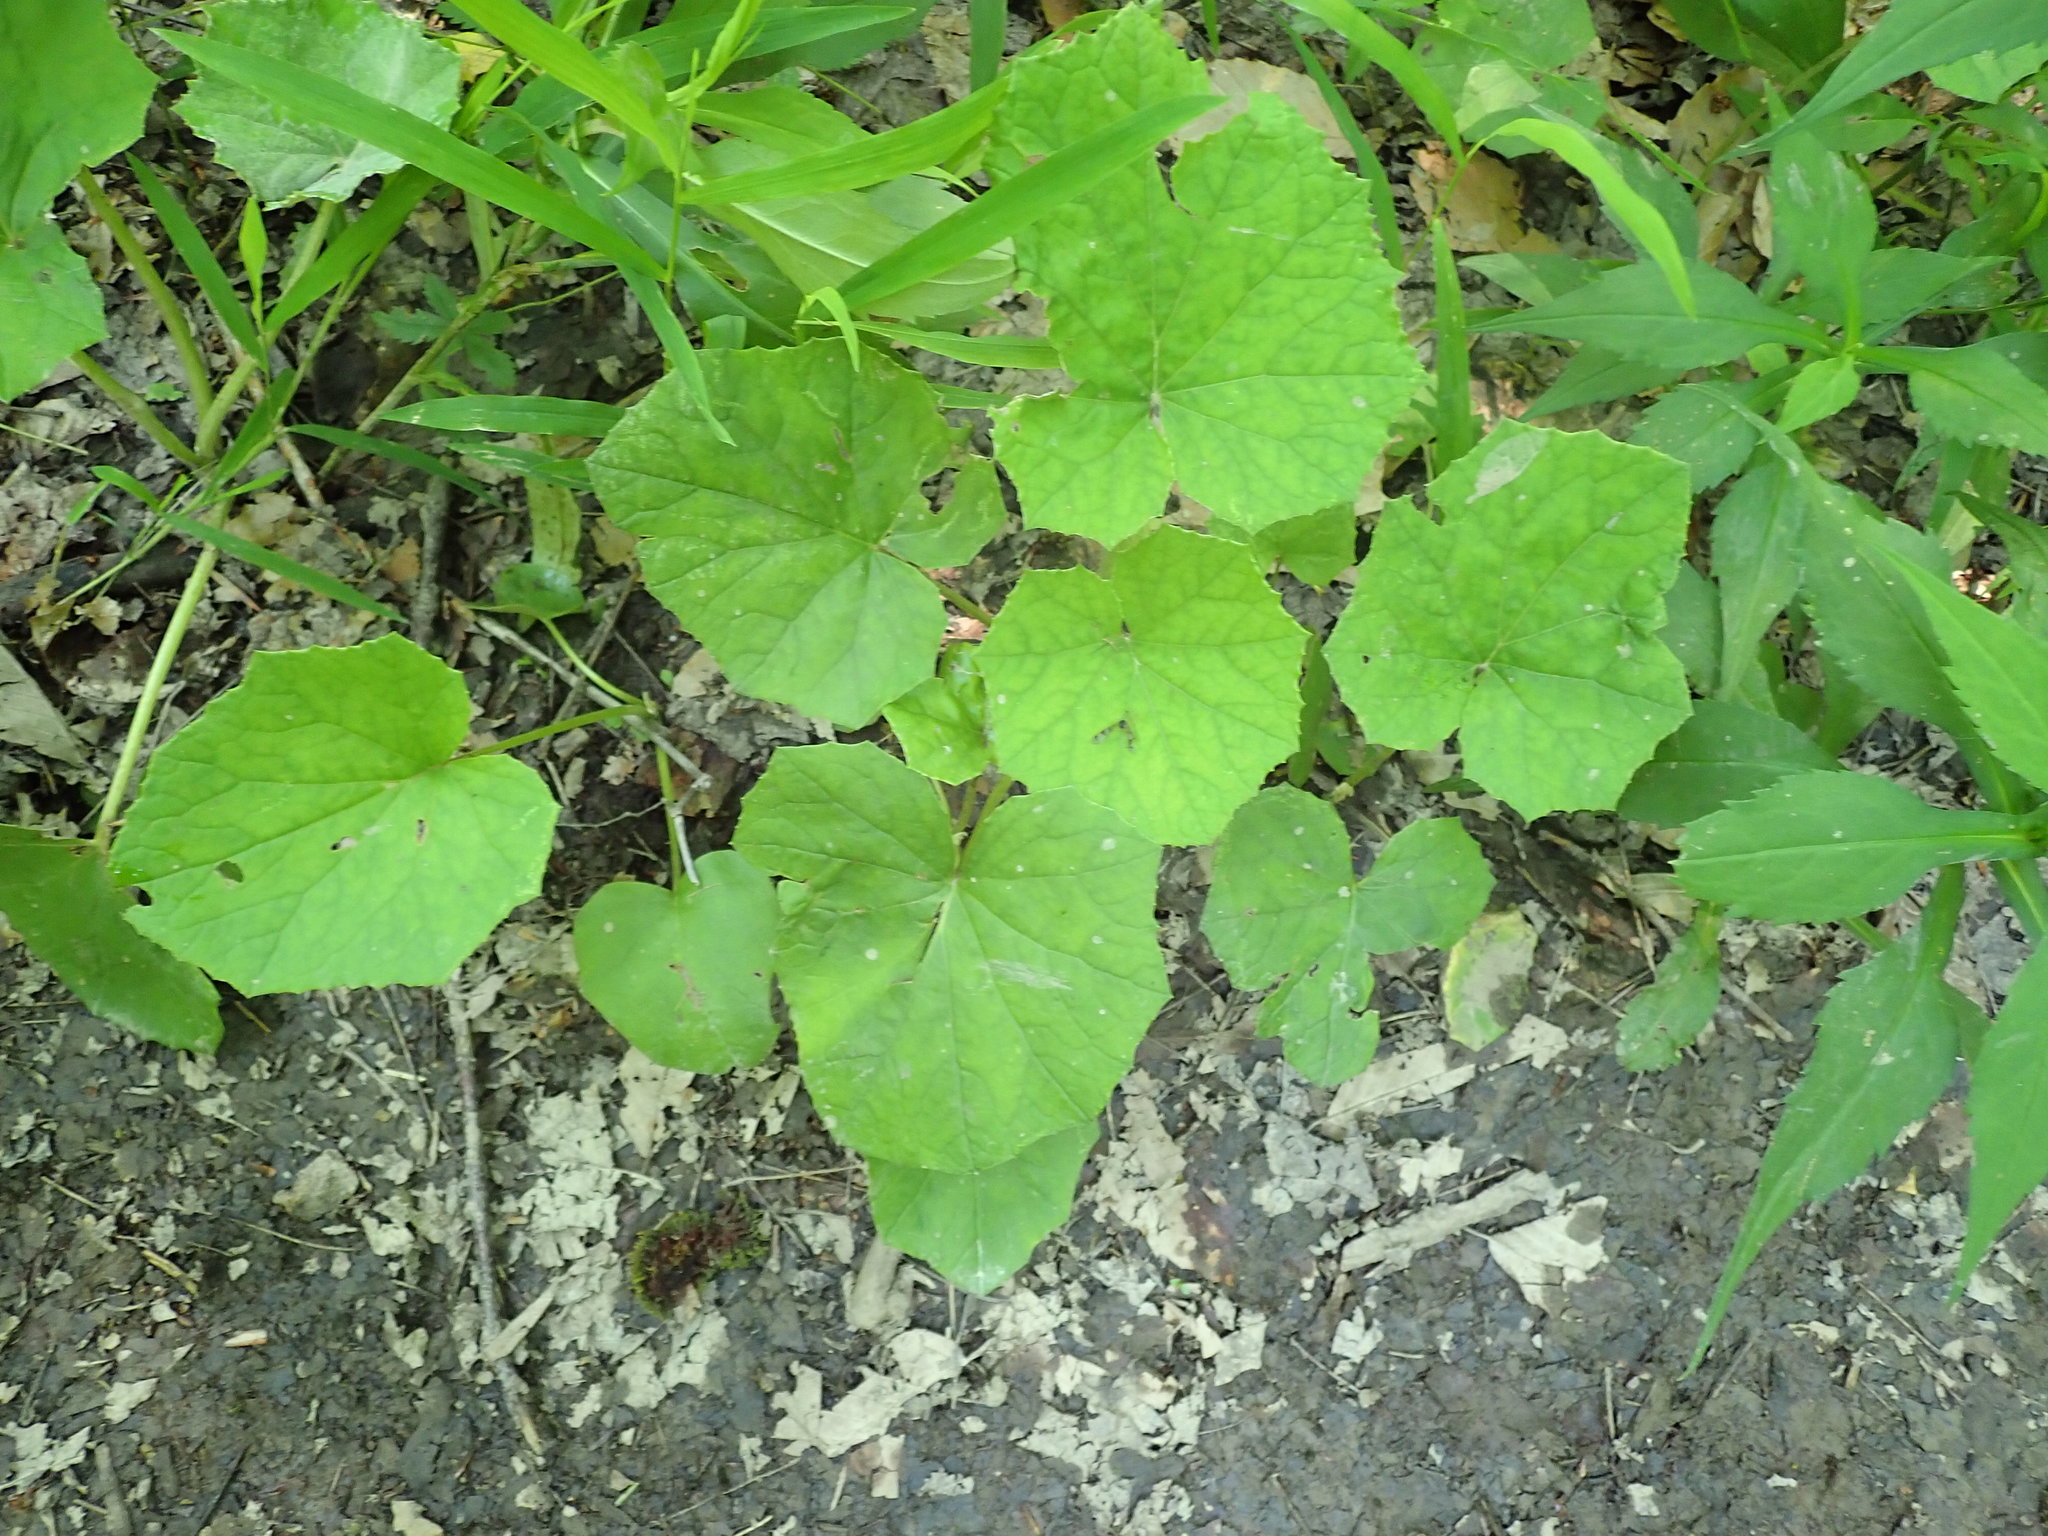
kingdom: Plantae
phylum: Tracheophyta
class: Magnoliopsida
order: Asterales
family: Asteraceae
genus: Tussilago
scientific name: Tussilago farfara
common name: Coltsfoot
